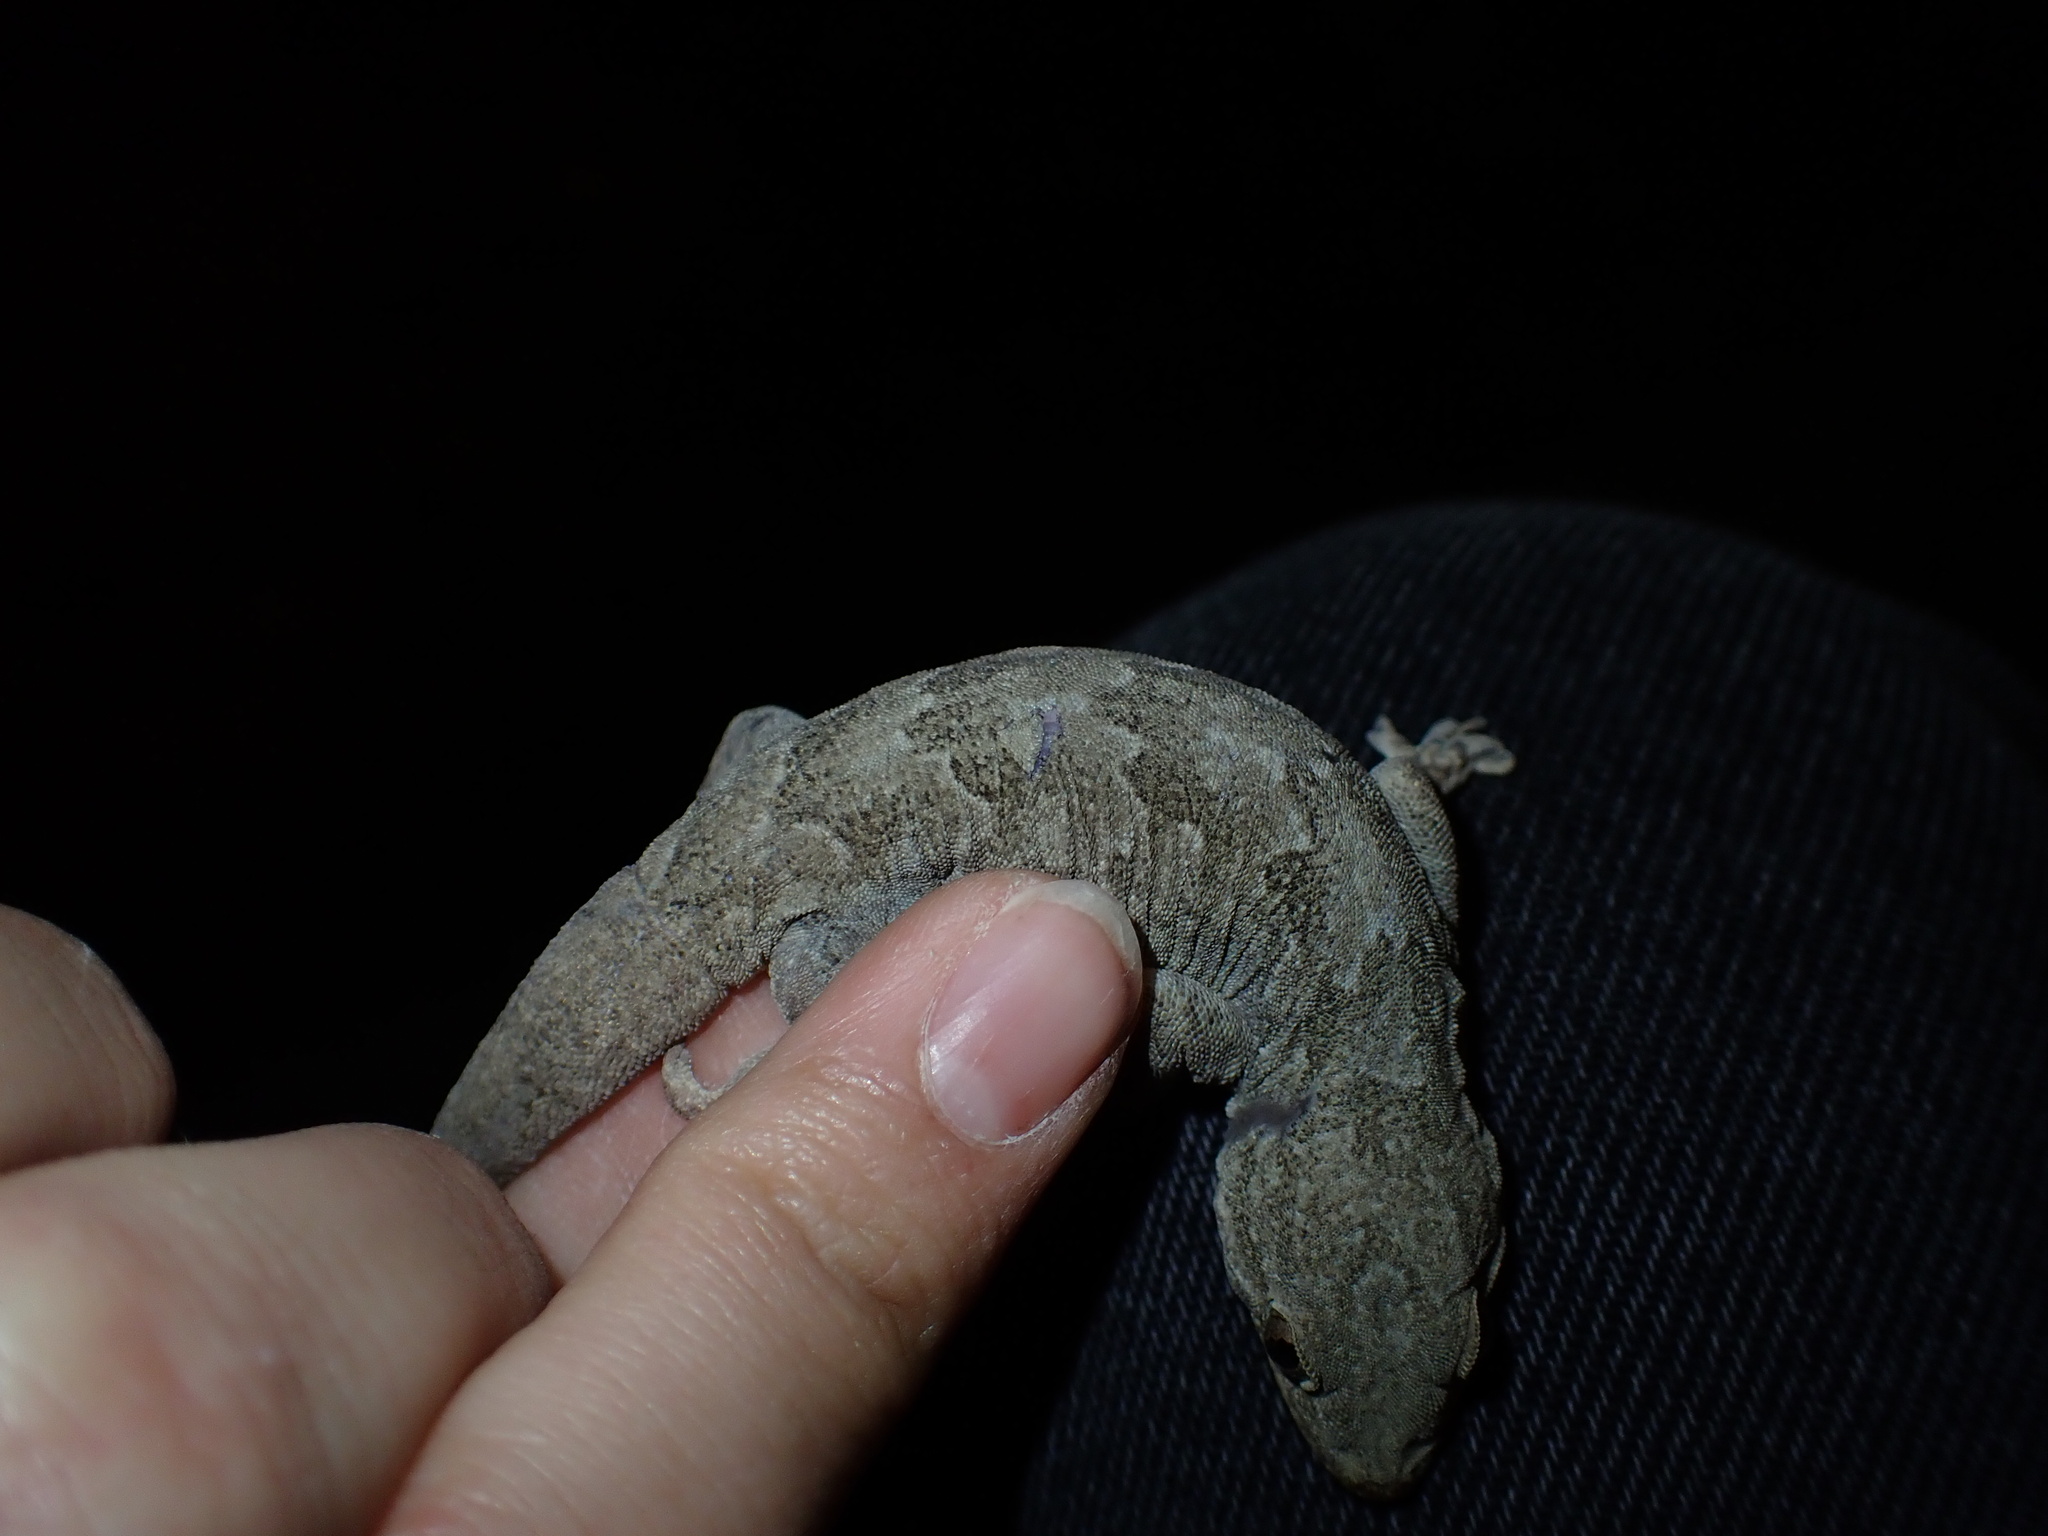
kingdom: Animalia
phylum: Chordata
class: Squamata
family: Gekkonidae
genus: Hemidactylus
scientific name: Hemidactylus flaviviridis
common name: Northern house gecko
